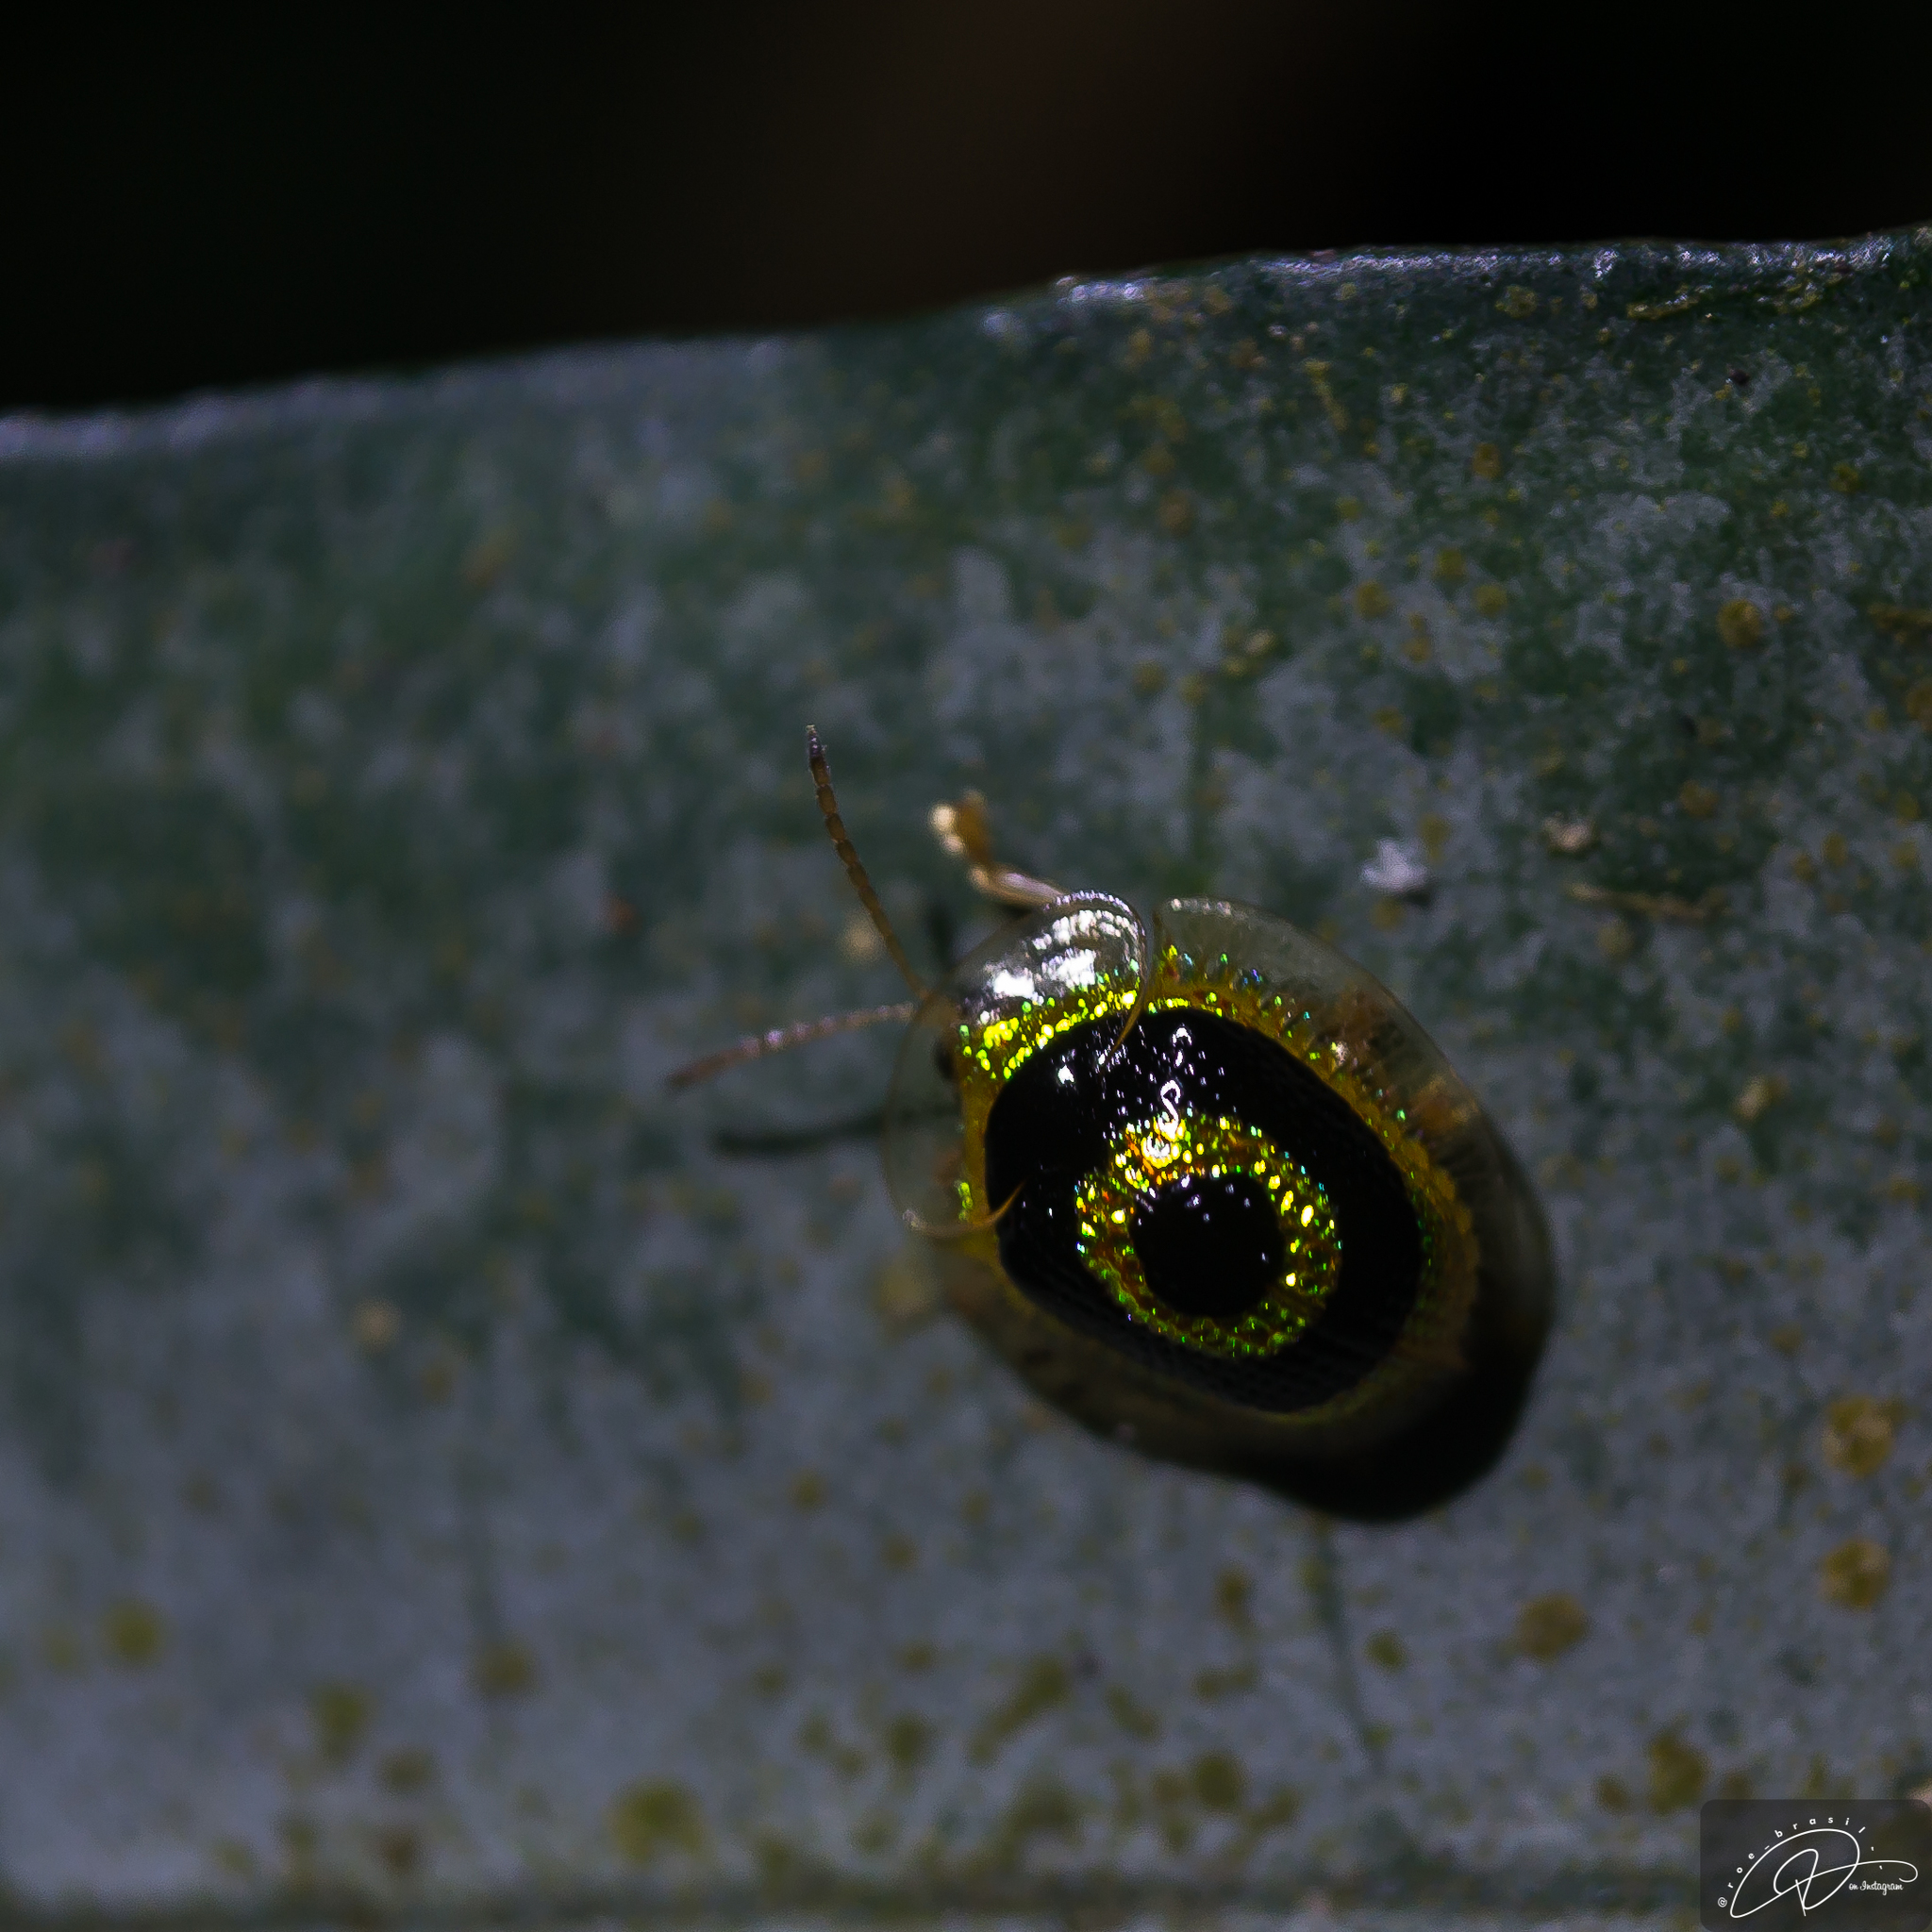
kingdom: Animalia
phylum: Arthropoda
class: Insecta
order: Coleoptera
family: Chrysomelidae
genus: Charidotis
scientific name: Charidotis concentrica
